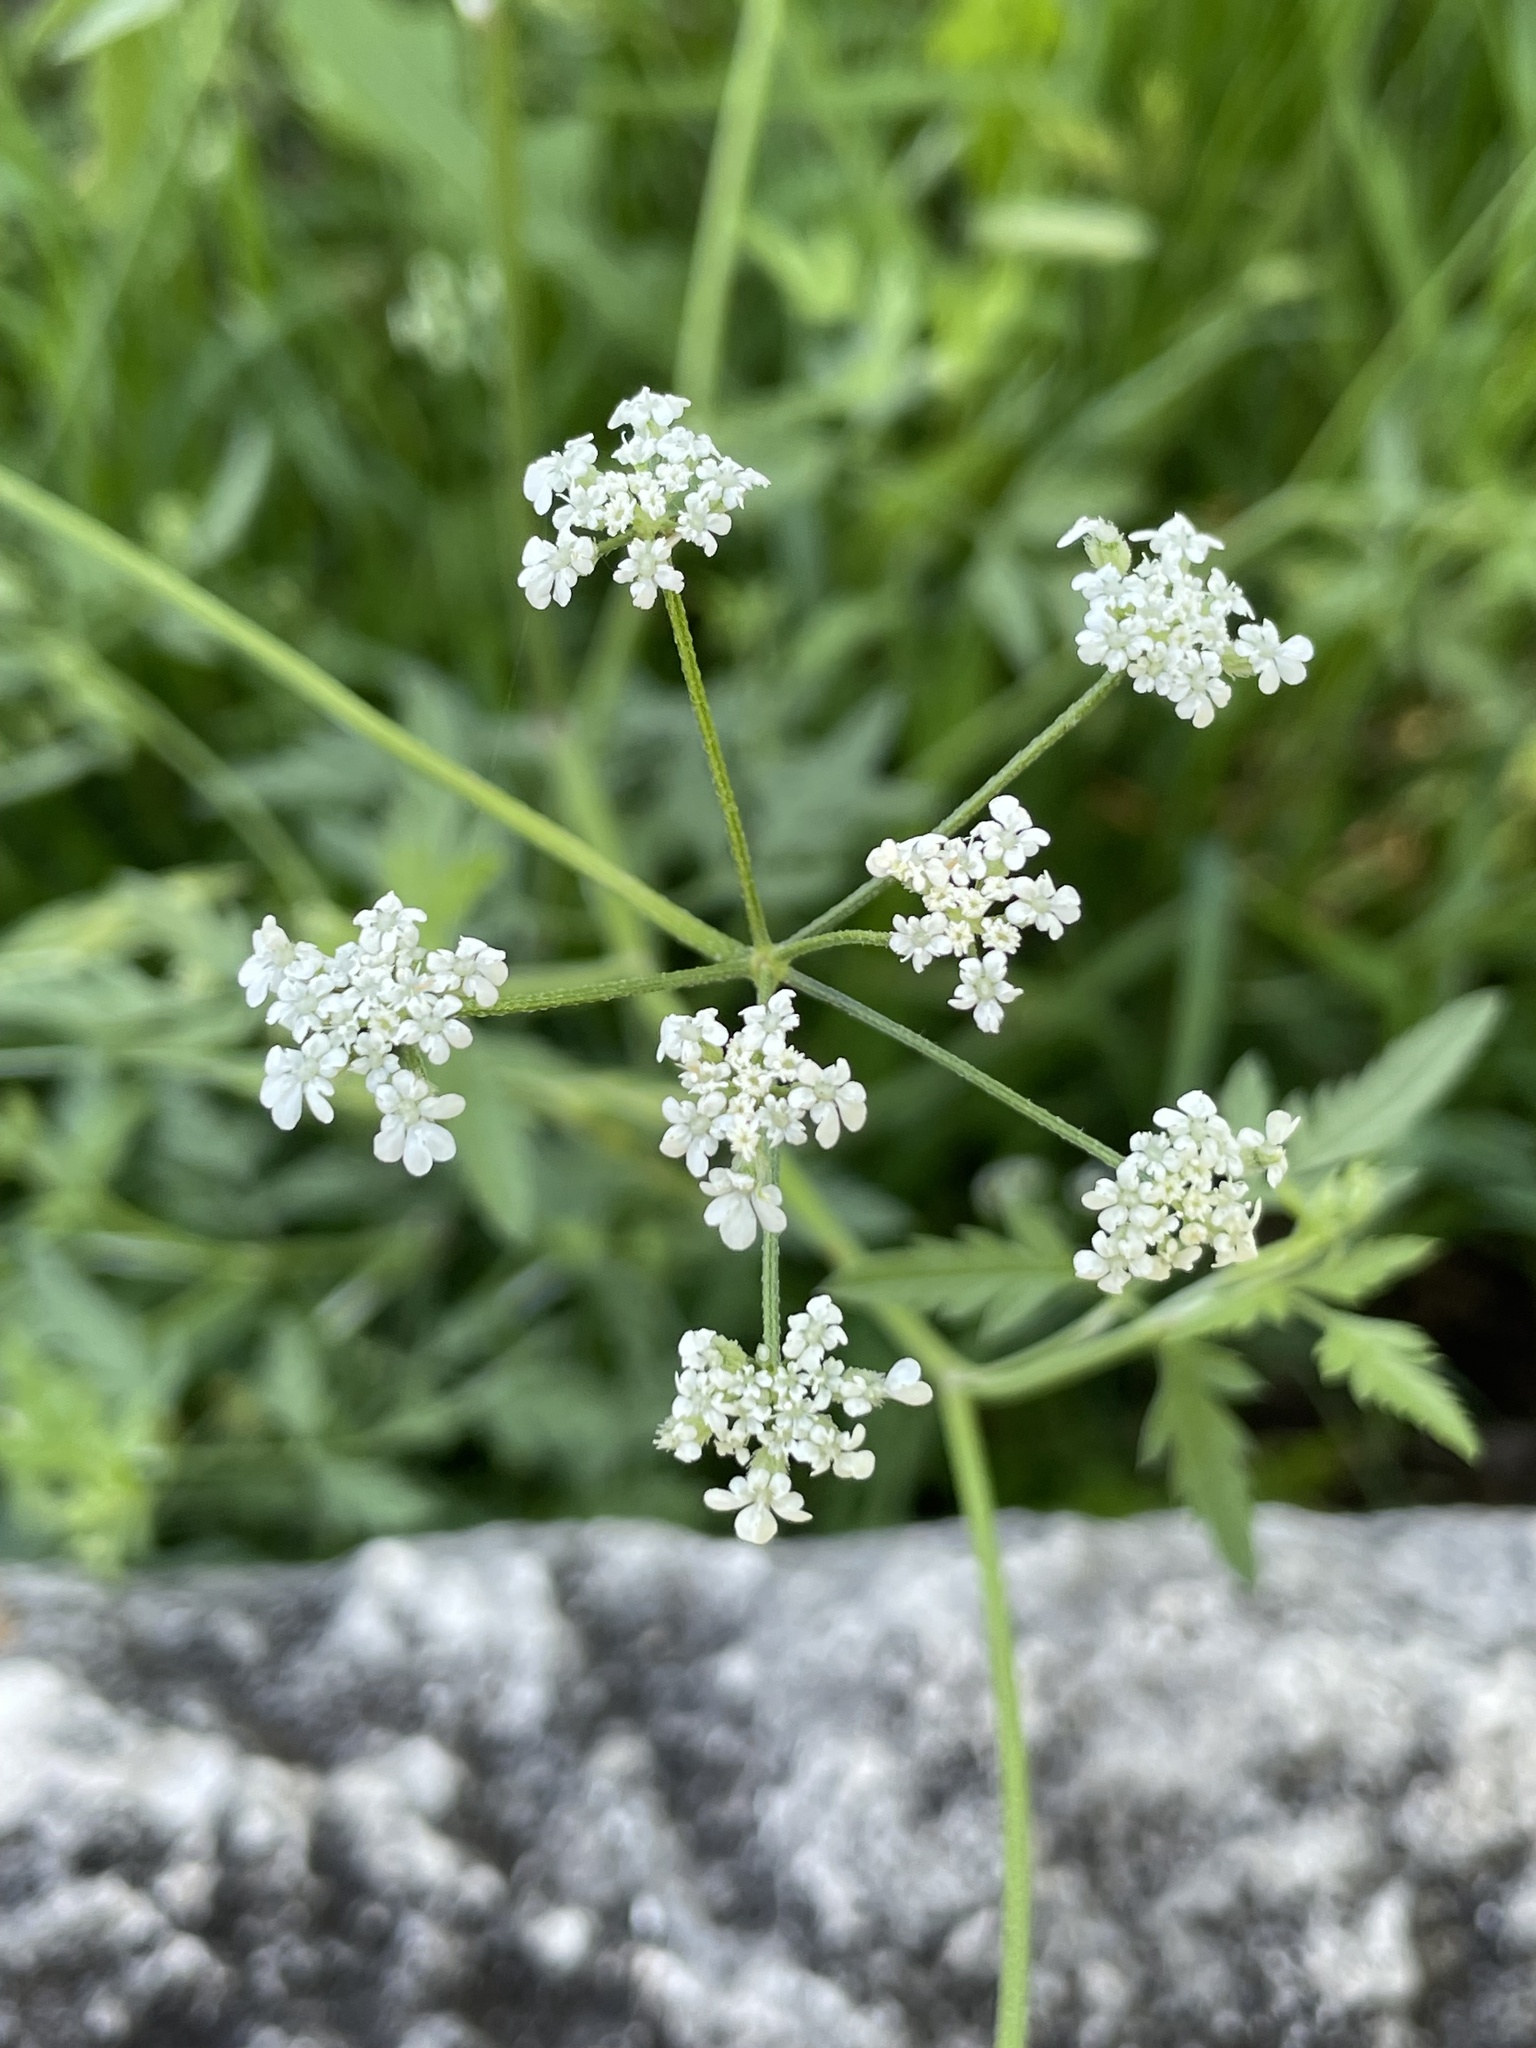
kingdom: Plantae
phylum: Tracheophyta
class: Magnoliopsida
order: Apiales
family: Apiaceae
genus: Torilis
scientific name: Torilis arvensis
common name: Spreading hedge-parsley
